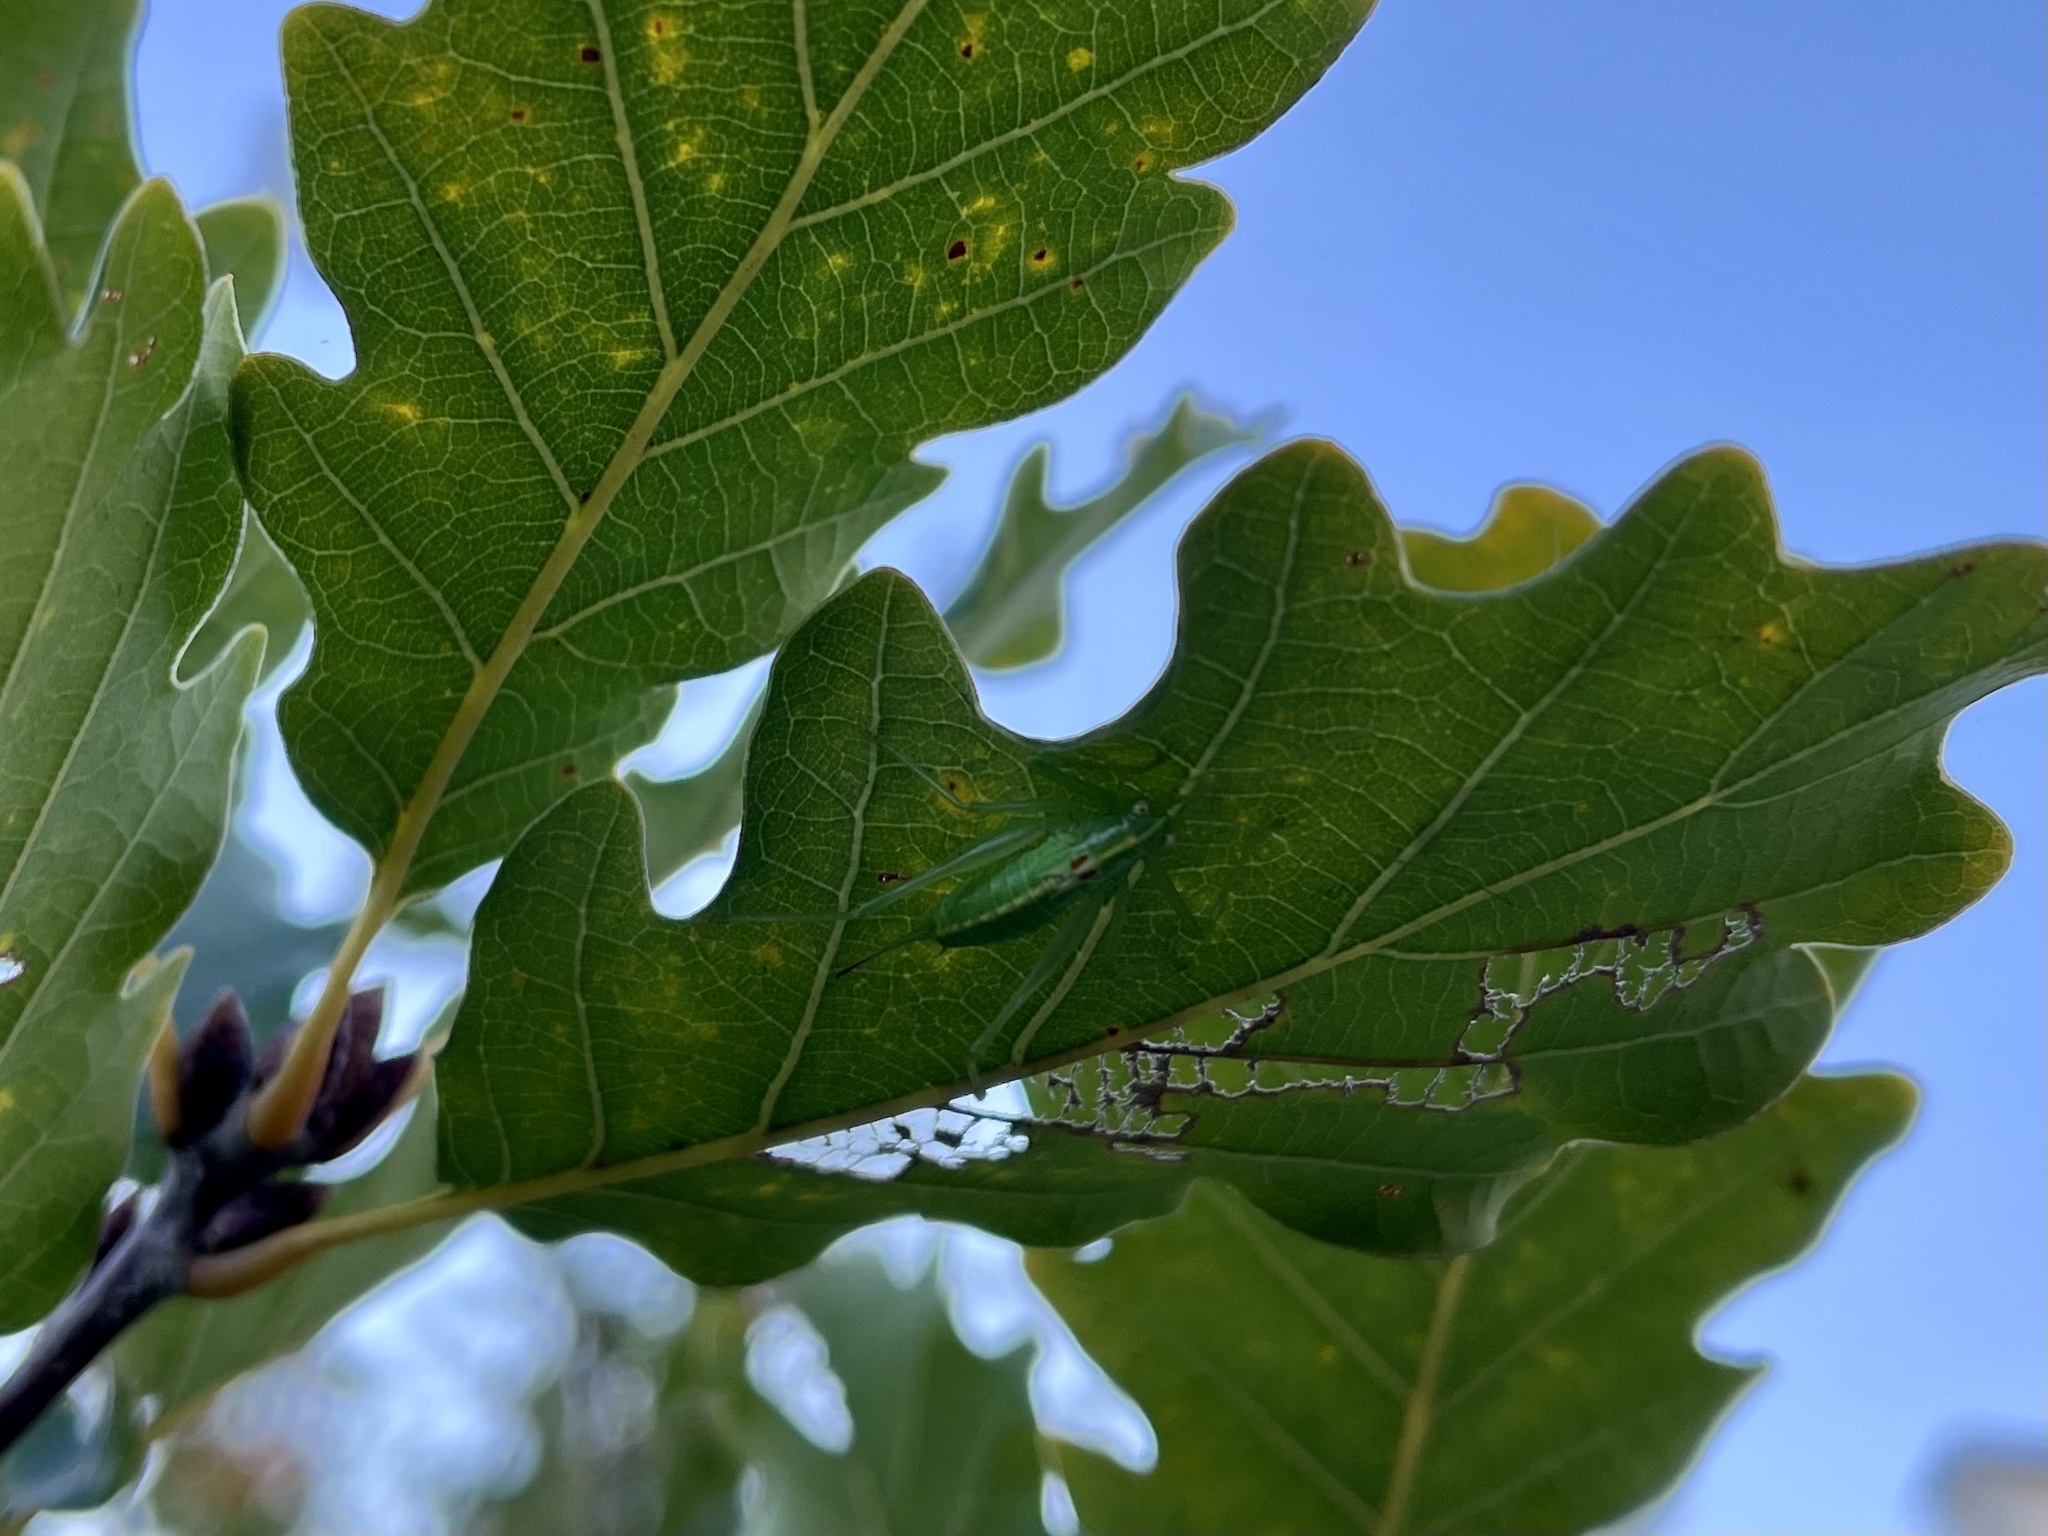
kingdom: Animalia
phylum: Arthropoda
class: Insecta
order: Orthoptera
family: Tettigoniidae
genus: Meconema
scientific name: Meconema meridionale
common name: Southern oak bush-cricket
